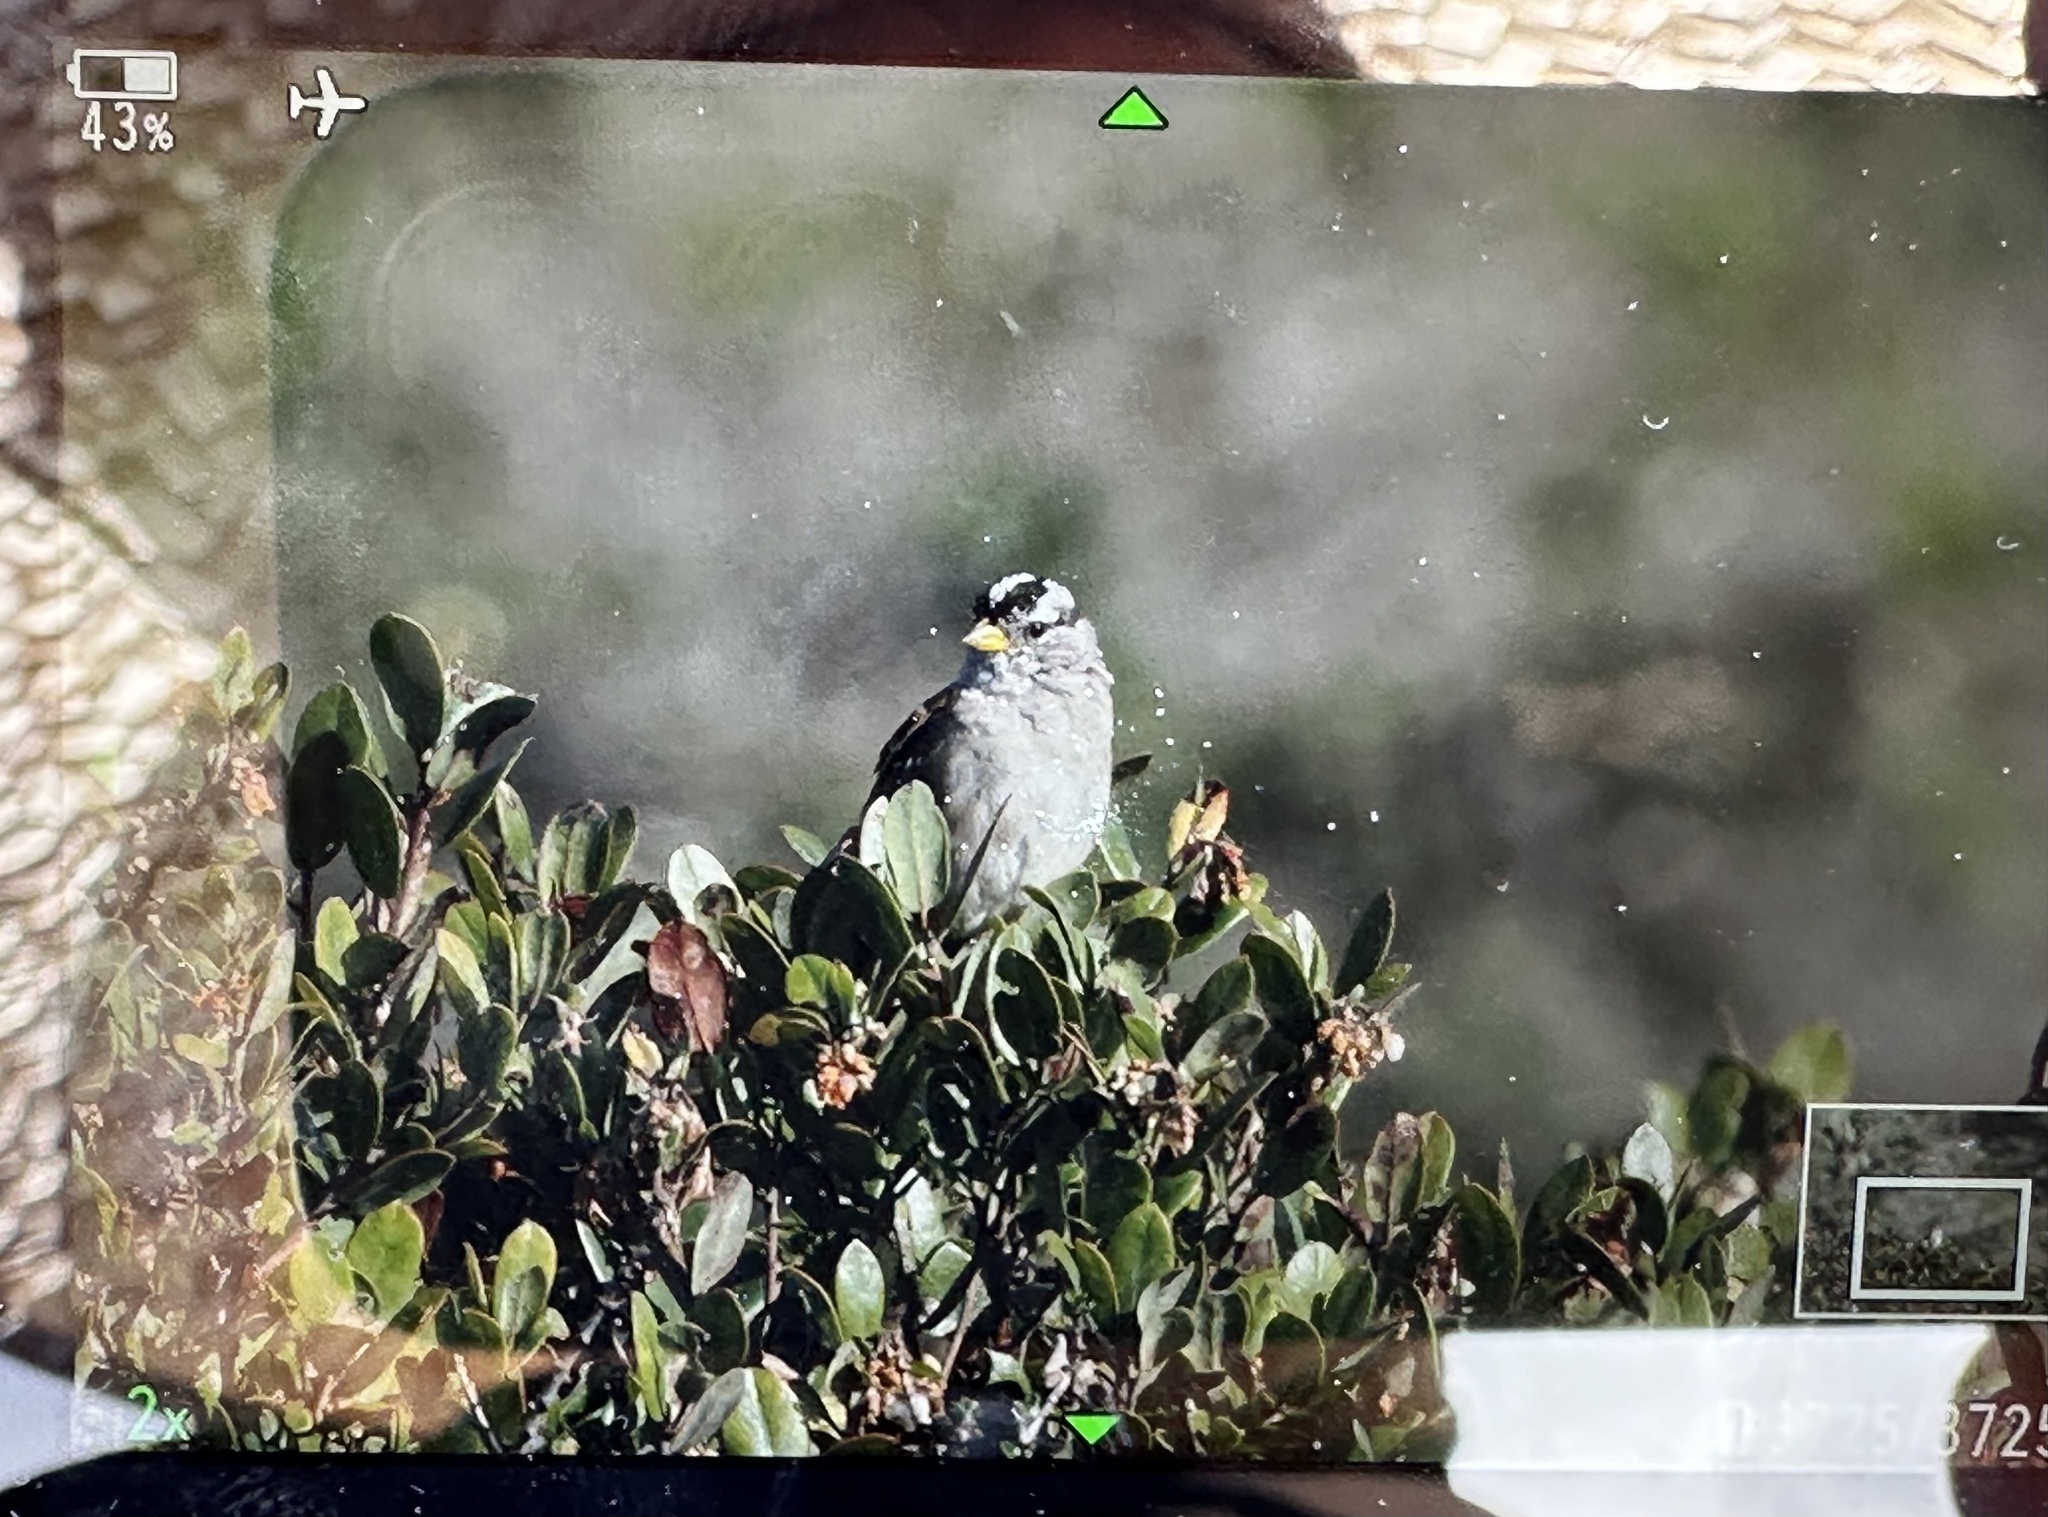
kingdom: Animalia
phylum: Chordata
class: Aves
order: Passeriformes
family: Passerellidae
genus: Zonotrichia
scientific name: Zonotrichia leucophrys
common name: White-crowned sparrow
